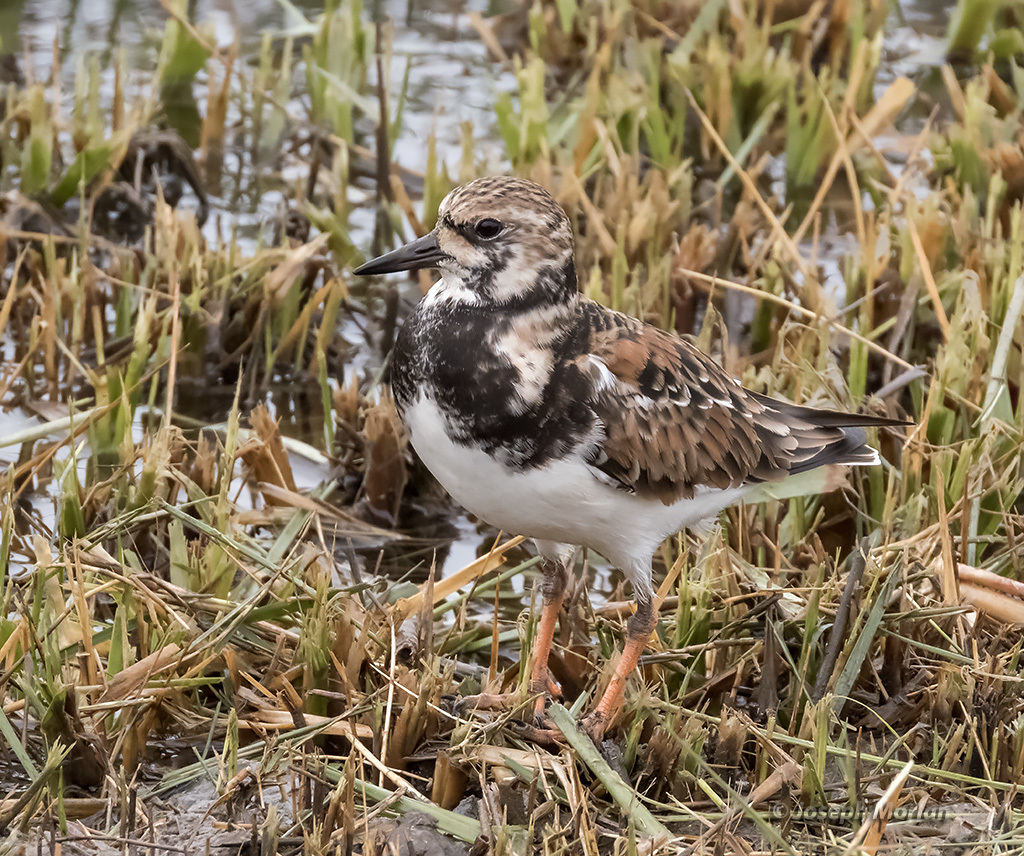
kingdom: Animalia
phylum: Chordata
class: Aves
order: Charadriiformes
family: Scolopacidae
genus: Arenaria
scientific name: Arenaria interpres
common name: Ruddy turnstone
